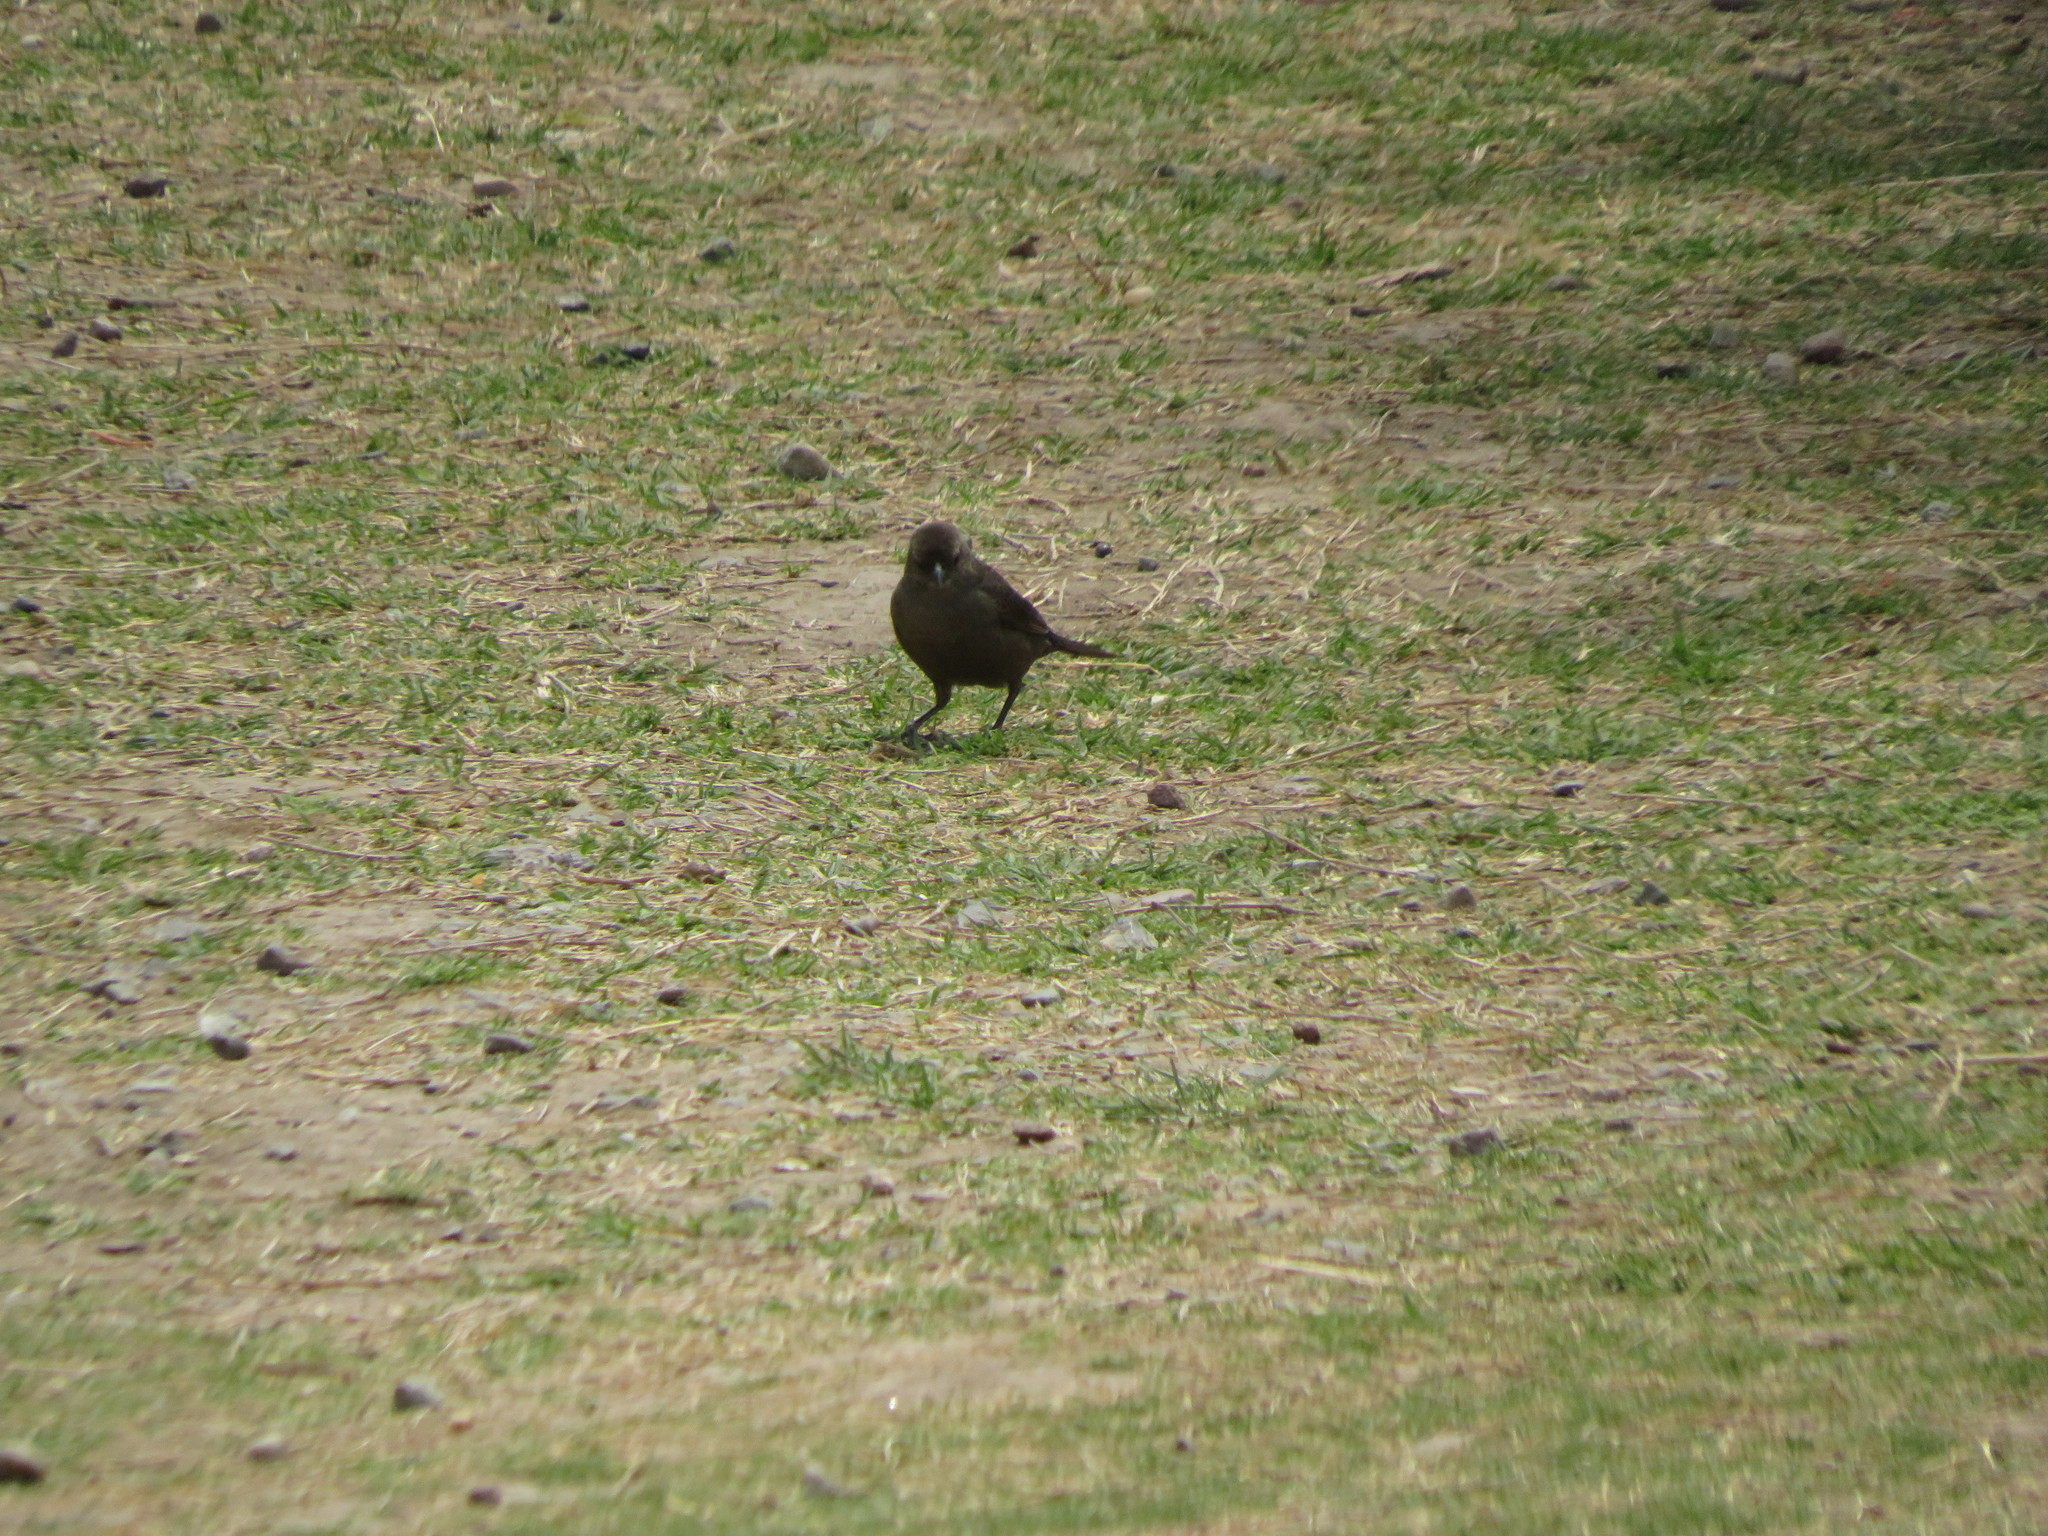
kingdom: Animalia
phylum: Chordata
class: Aves
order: Passeriformes
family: Icteridae
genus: Molothrus
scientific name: Molothrus bonariensis
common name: Shiny cowbird
